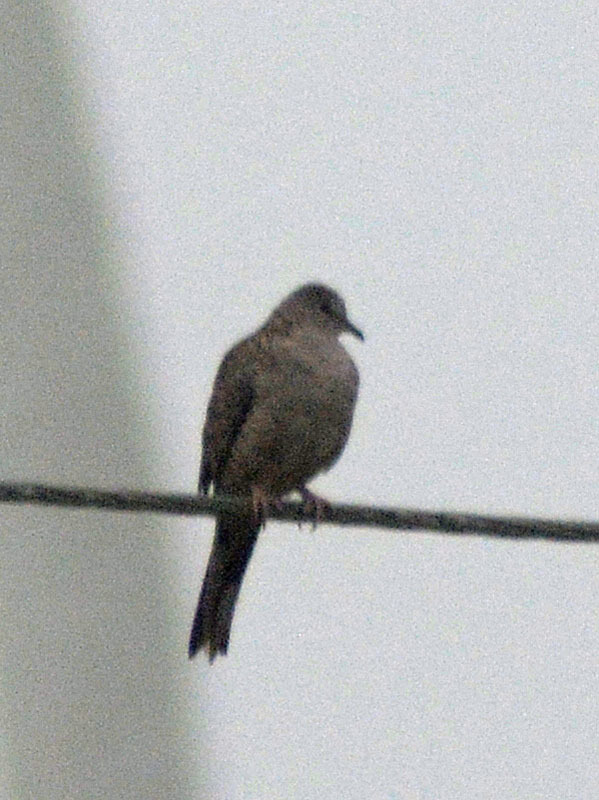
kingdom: Animalia
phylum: Chordata
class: Aves
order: Columbiformes
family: Columbidae
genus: Columbina
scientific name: Columbina inca
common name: Inca dove
